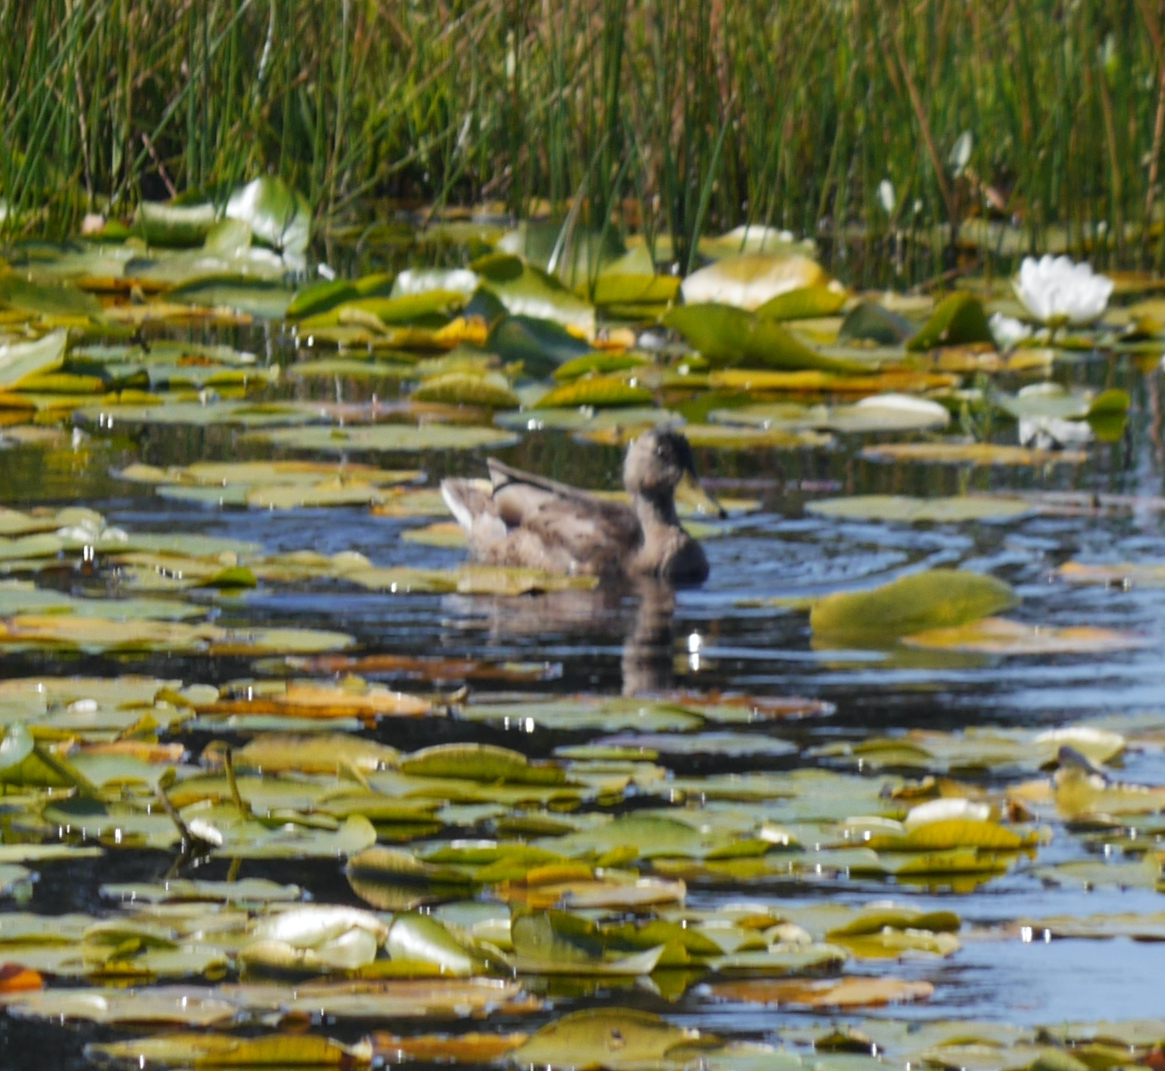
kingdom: Animalia
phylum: Chordata
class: Aves
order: Anseriformes
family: Anatidae
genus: Anas
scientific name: Anas platyrhynchos
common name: Mallard
